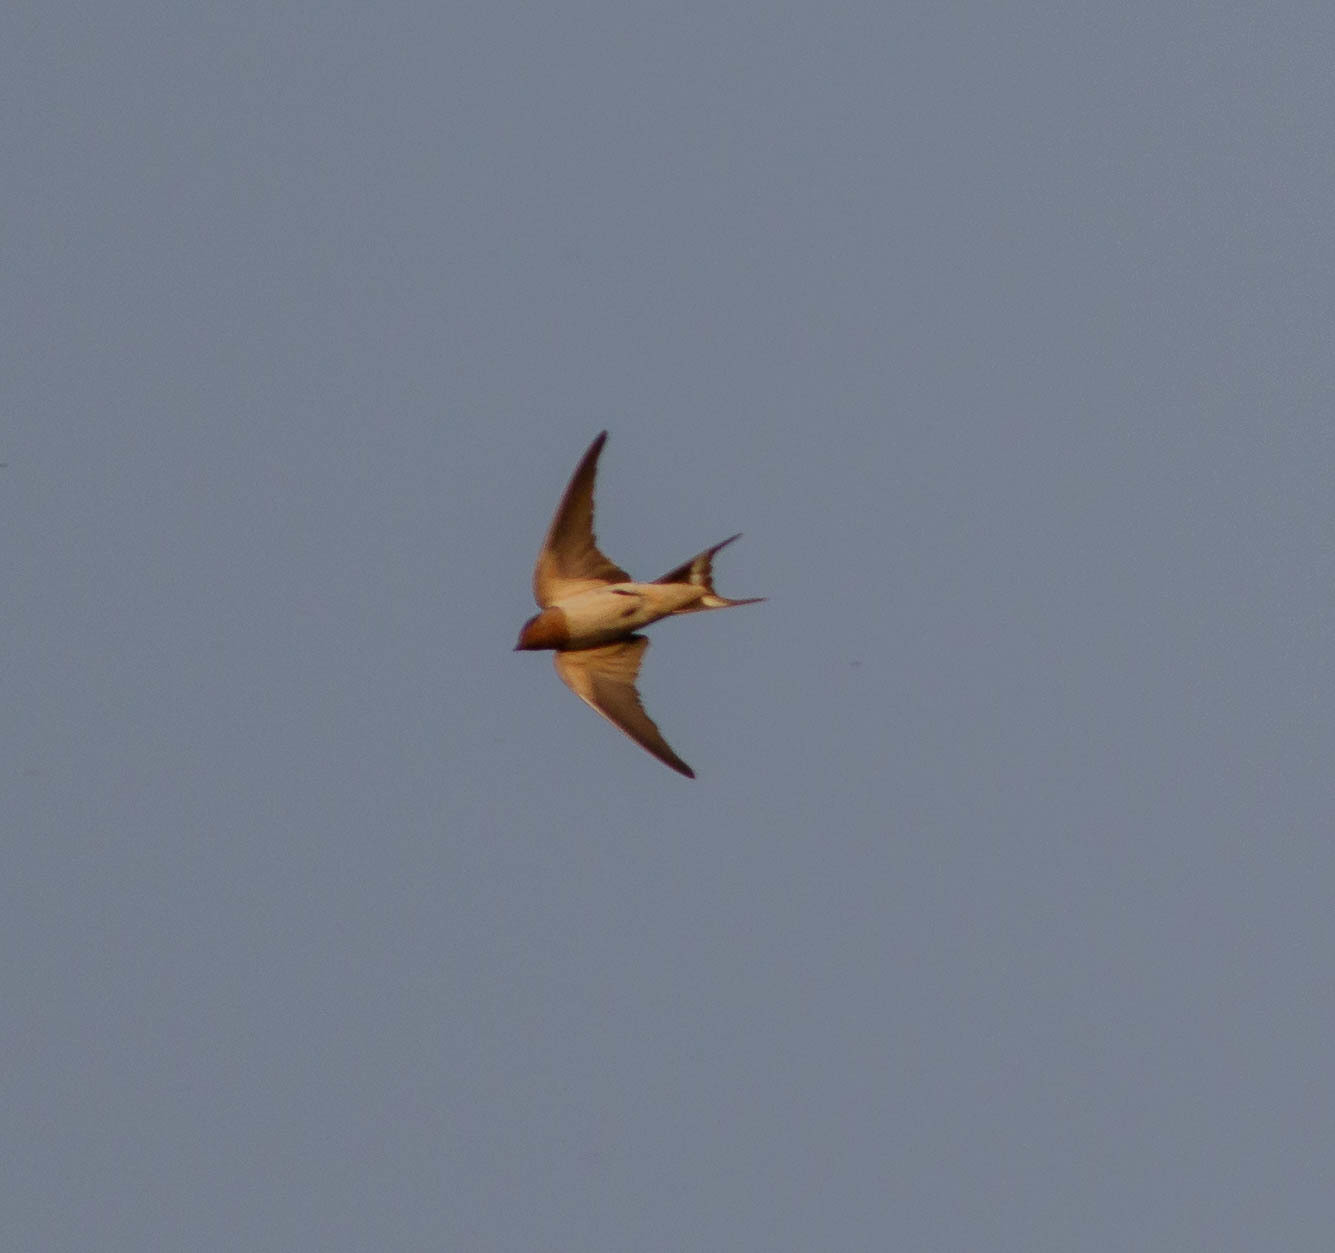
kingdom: Animalia
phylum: Chordata
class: Aves
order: Passeriformes
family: Hirundinidae
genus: Hirundo
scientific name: Hirundo rustica
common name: Barn swallow
